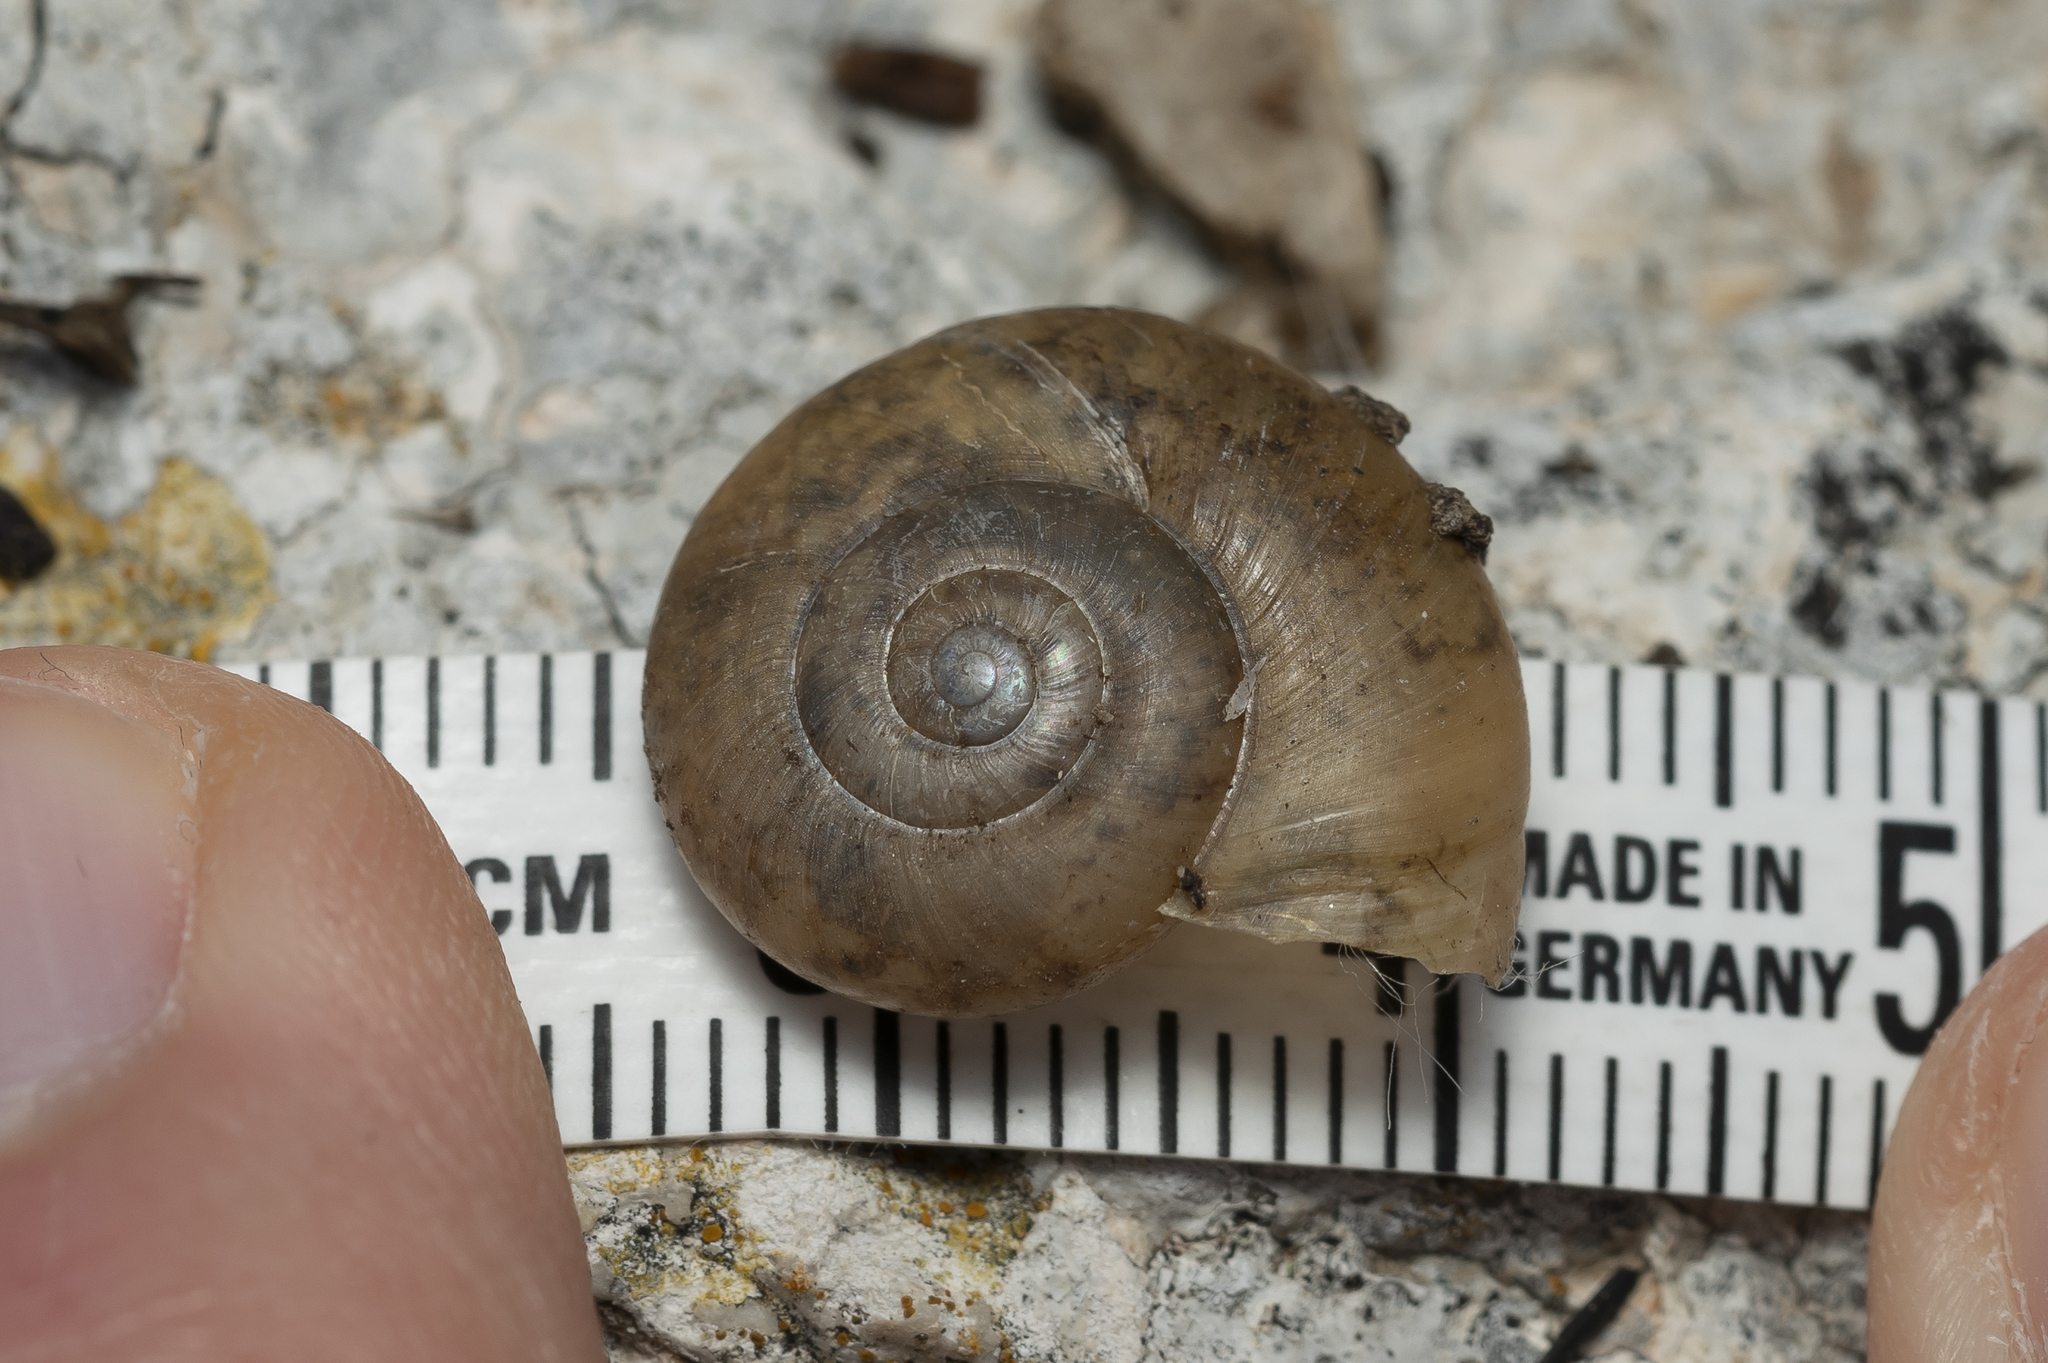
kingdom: Animalia
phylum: Mollusca
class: Gastropoda
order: Stylommatophora
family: Oxychilidae
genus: Eopolita
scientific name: Eopolita protensa
